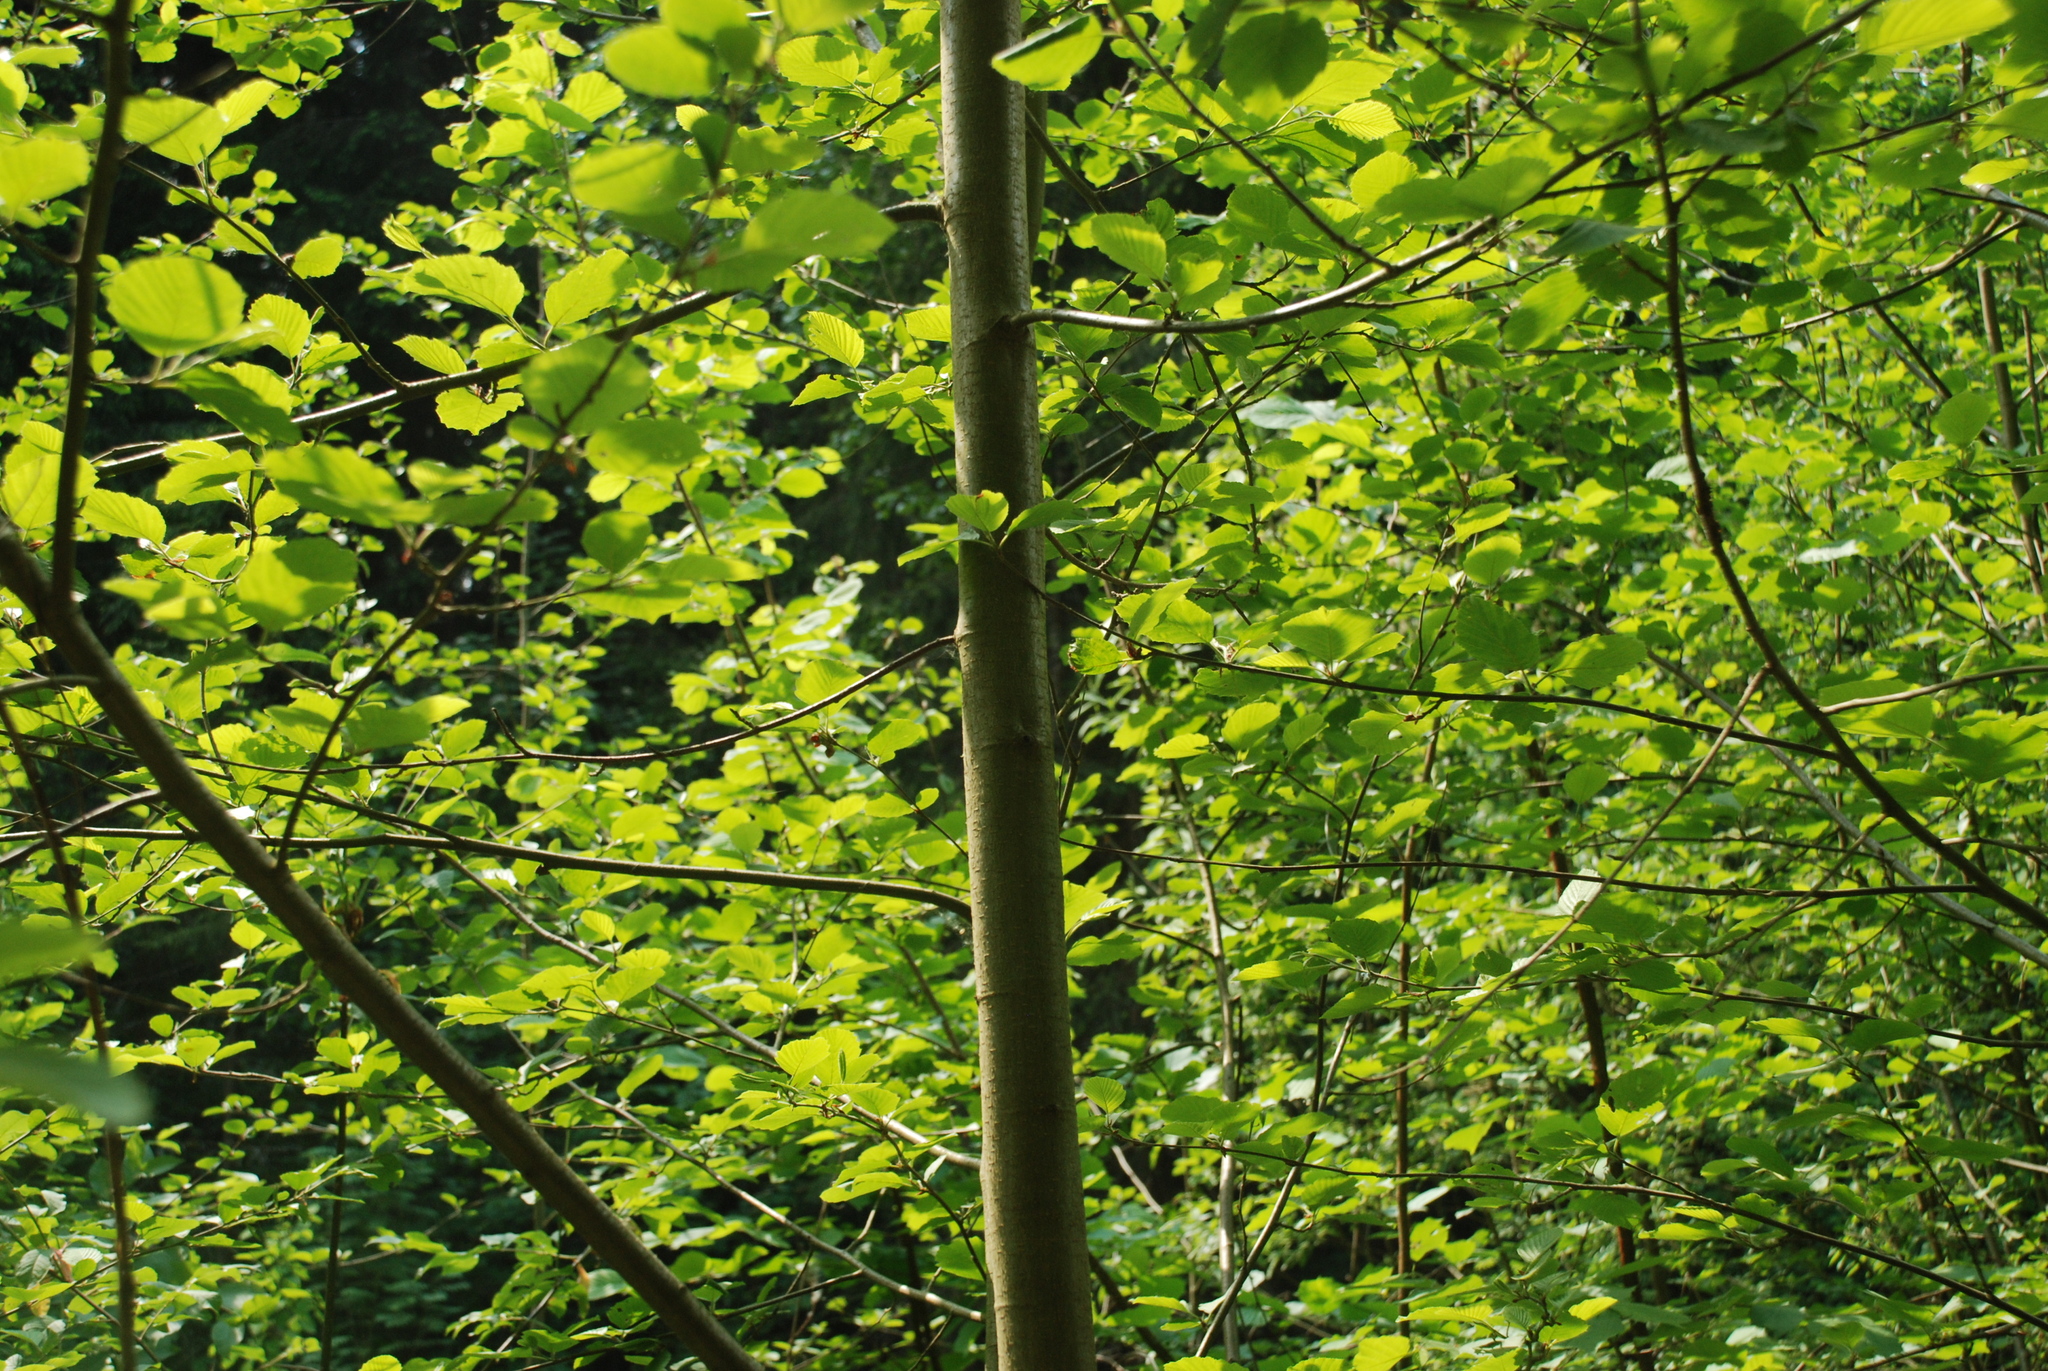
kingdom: Plantae
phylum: Tracheophyta
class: Magnoliopsida
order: Fagales
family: Betulaceae
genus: Alnus
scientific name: Alnus glutinosa
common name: Black alder
